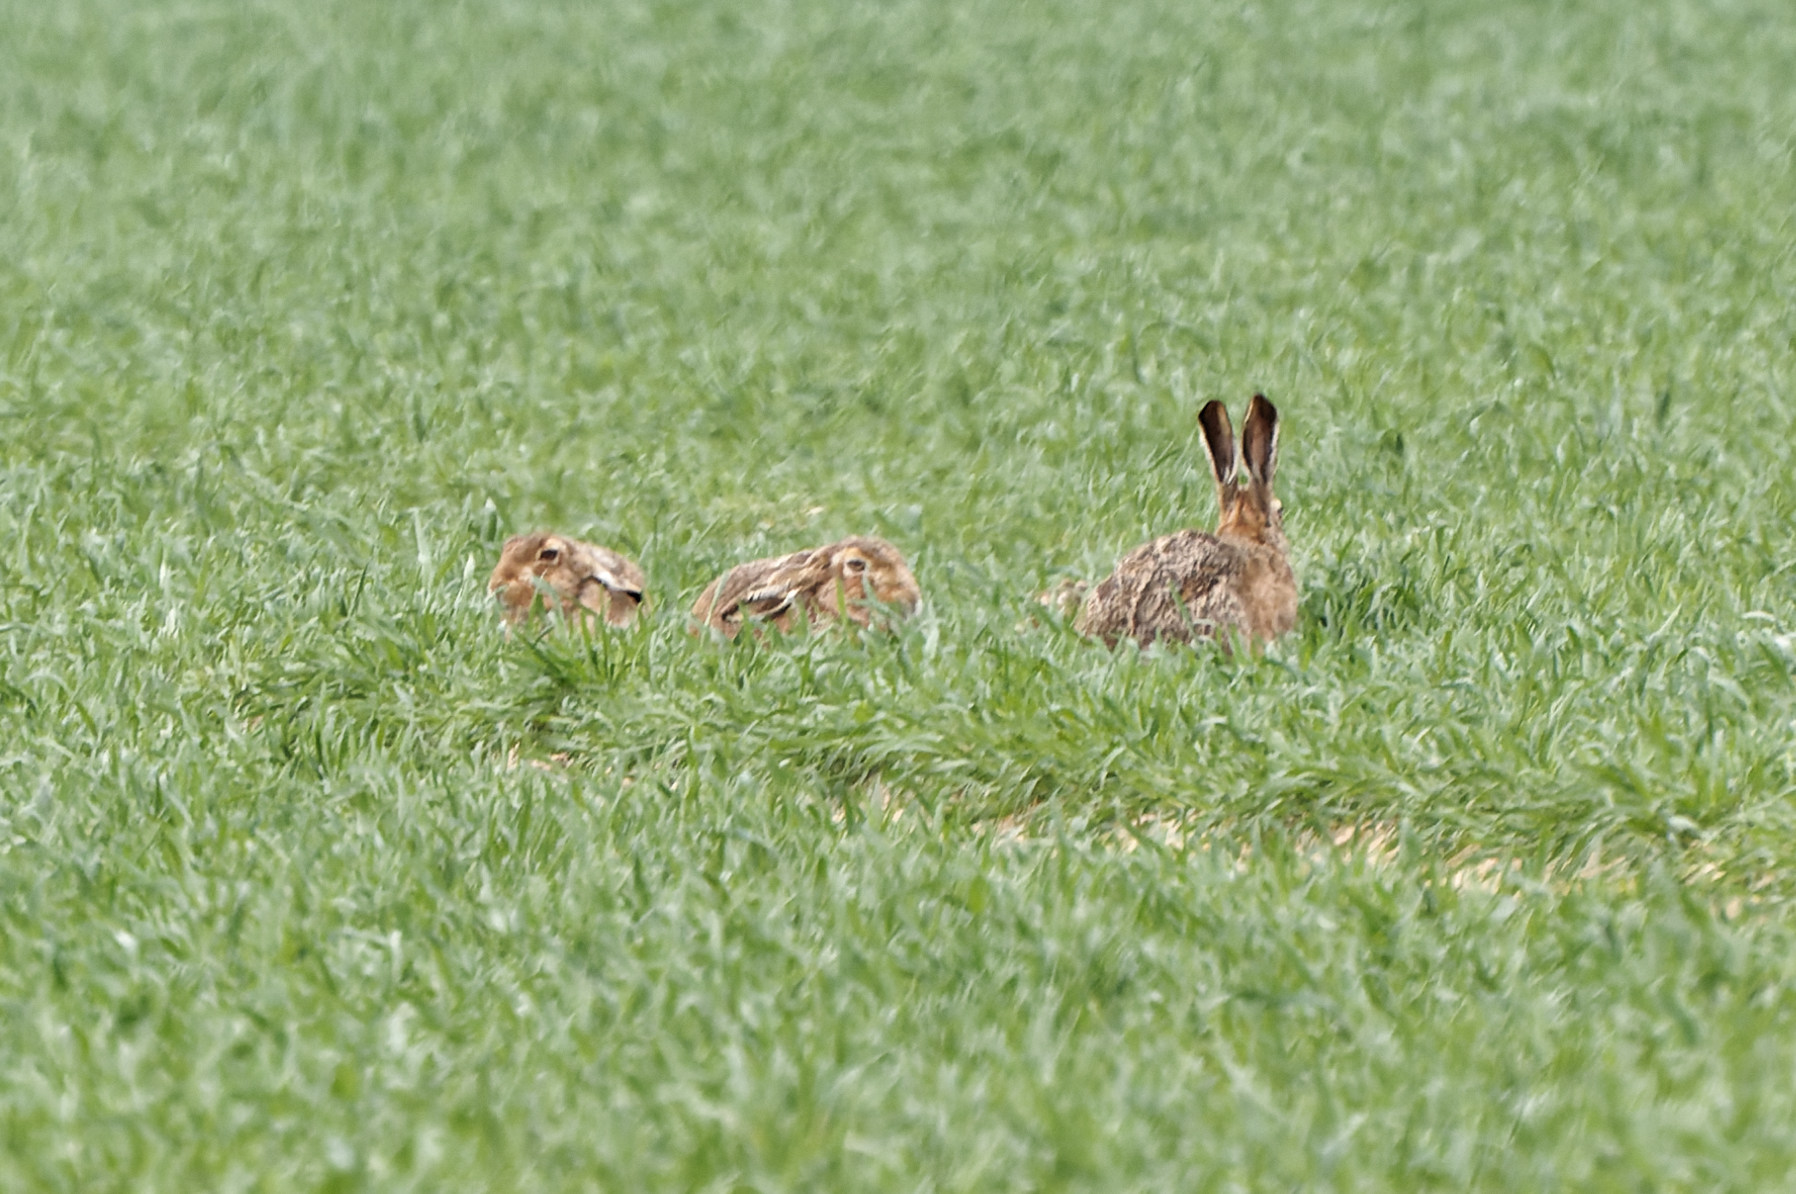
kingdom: Animalia
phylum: Chordata
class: Mammalia
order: Lagomorpha
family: Leporidae
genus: Lepus
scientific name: Lepus europaeus
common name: European hare
